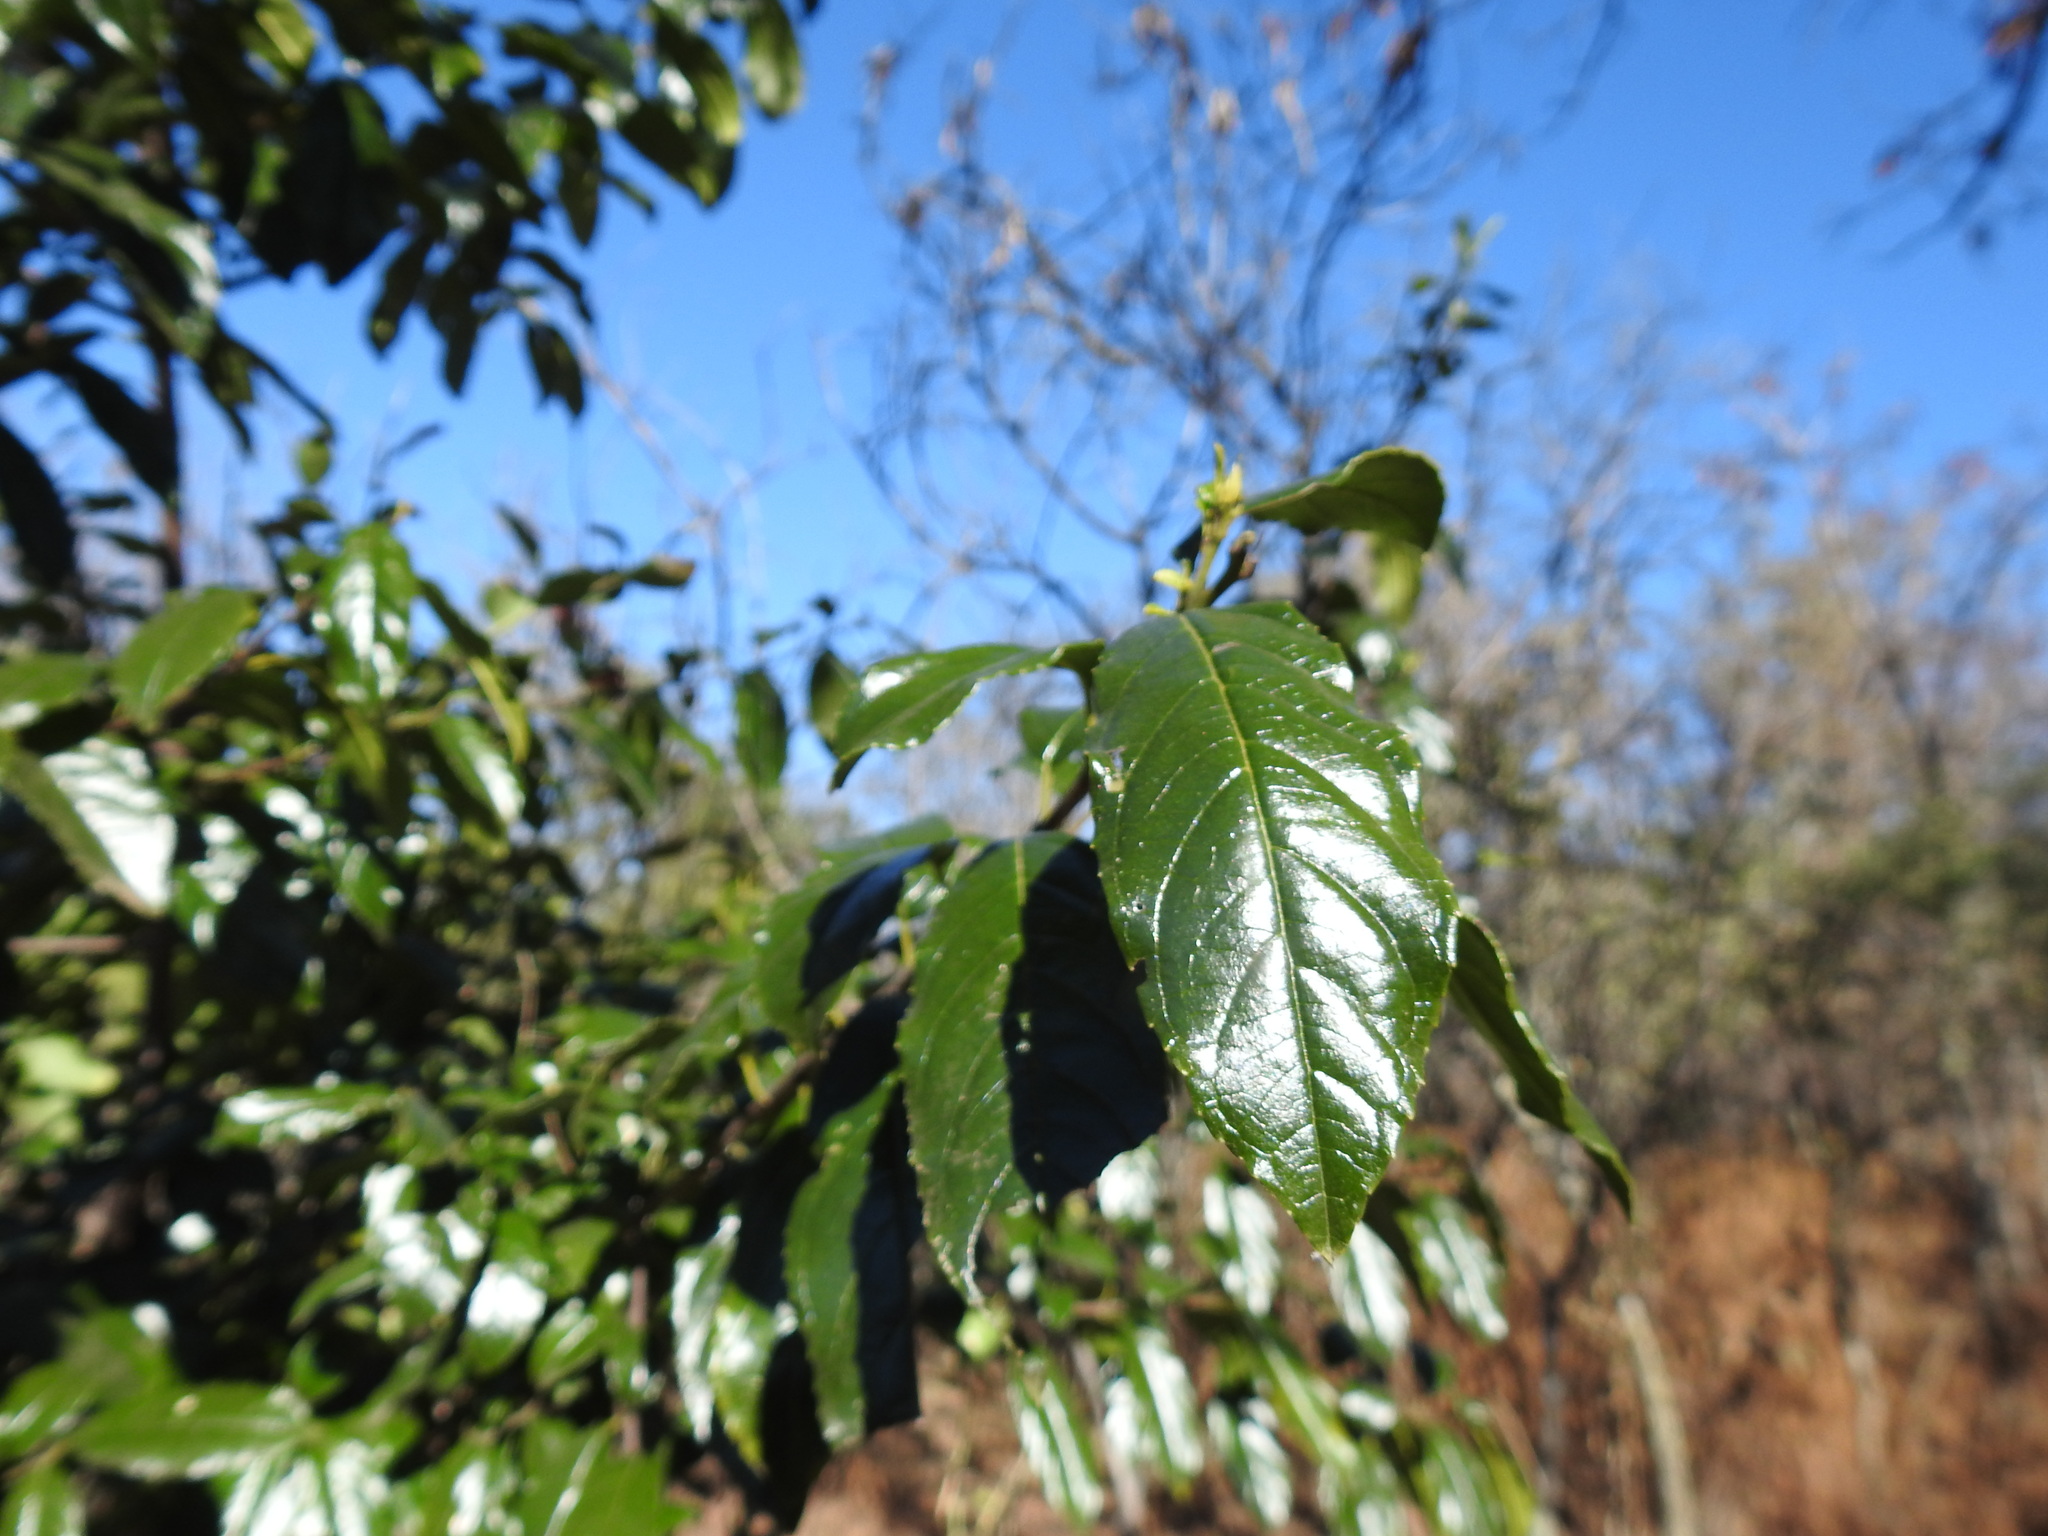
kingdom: Plantae
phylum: Tracheophyta
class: Magnoliopsida
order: Rosales
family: Rhamnaceae
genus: Rhamnus
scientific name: Rhamnus prinoides
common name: Dogwood
